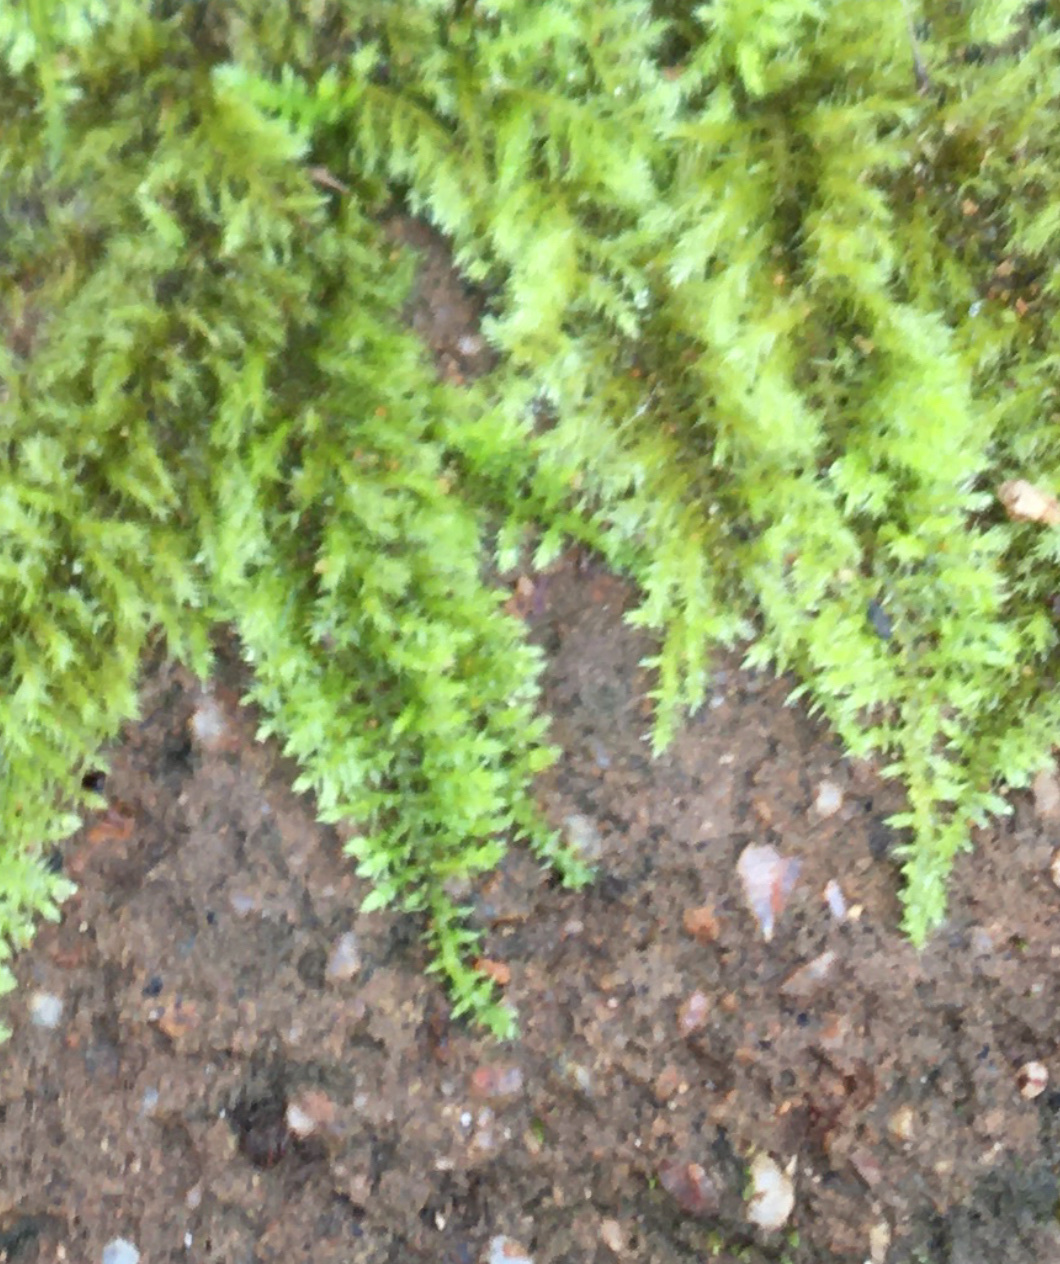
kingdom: Plantae
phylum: Bryophyta
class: Bryopsida
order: Hypnales
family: Brachytheciaceae
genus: Kindbergia
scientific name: Kindbergia praelonga
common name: Slender beaked moss
